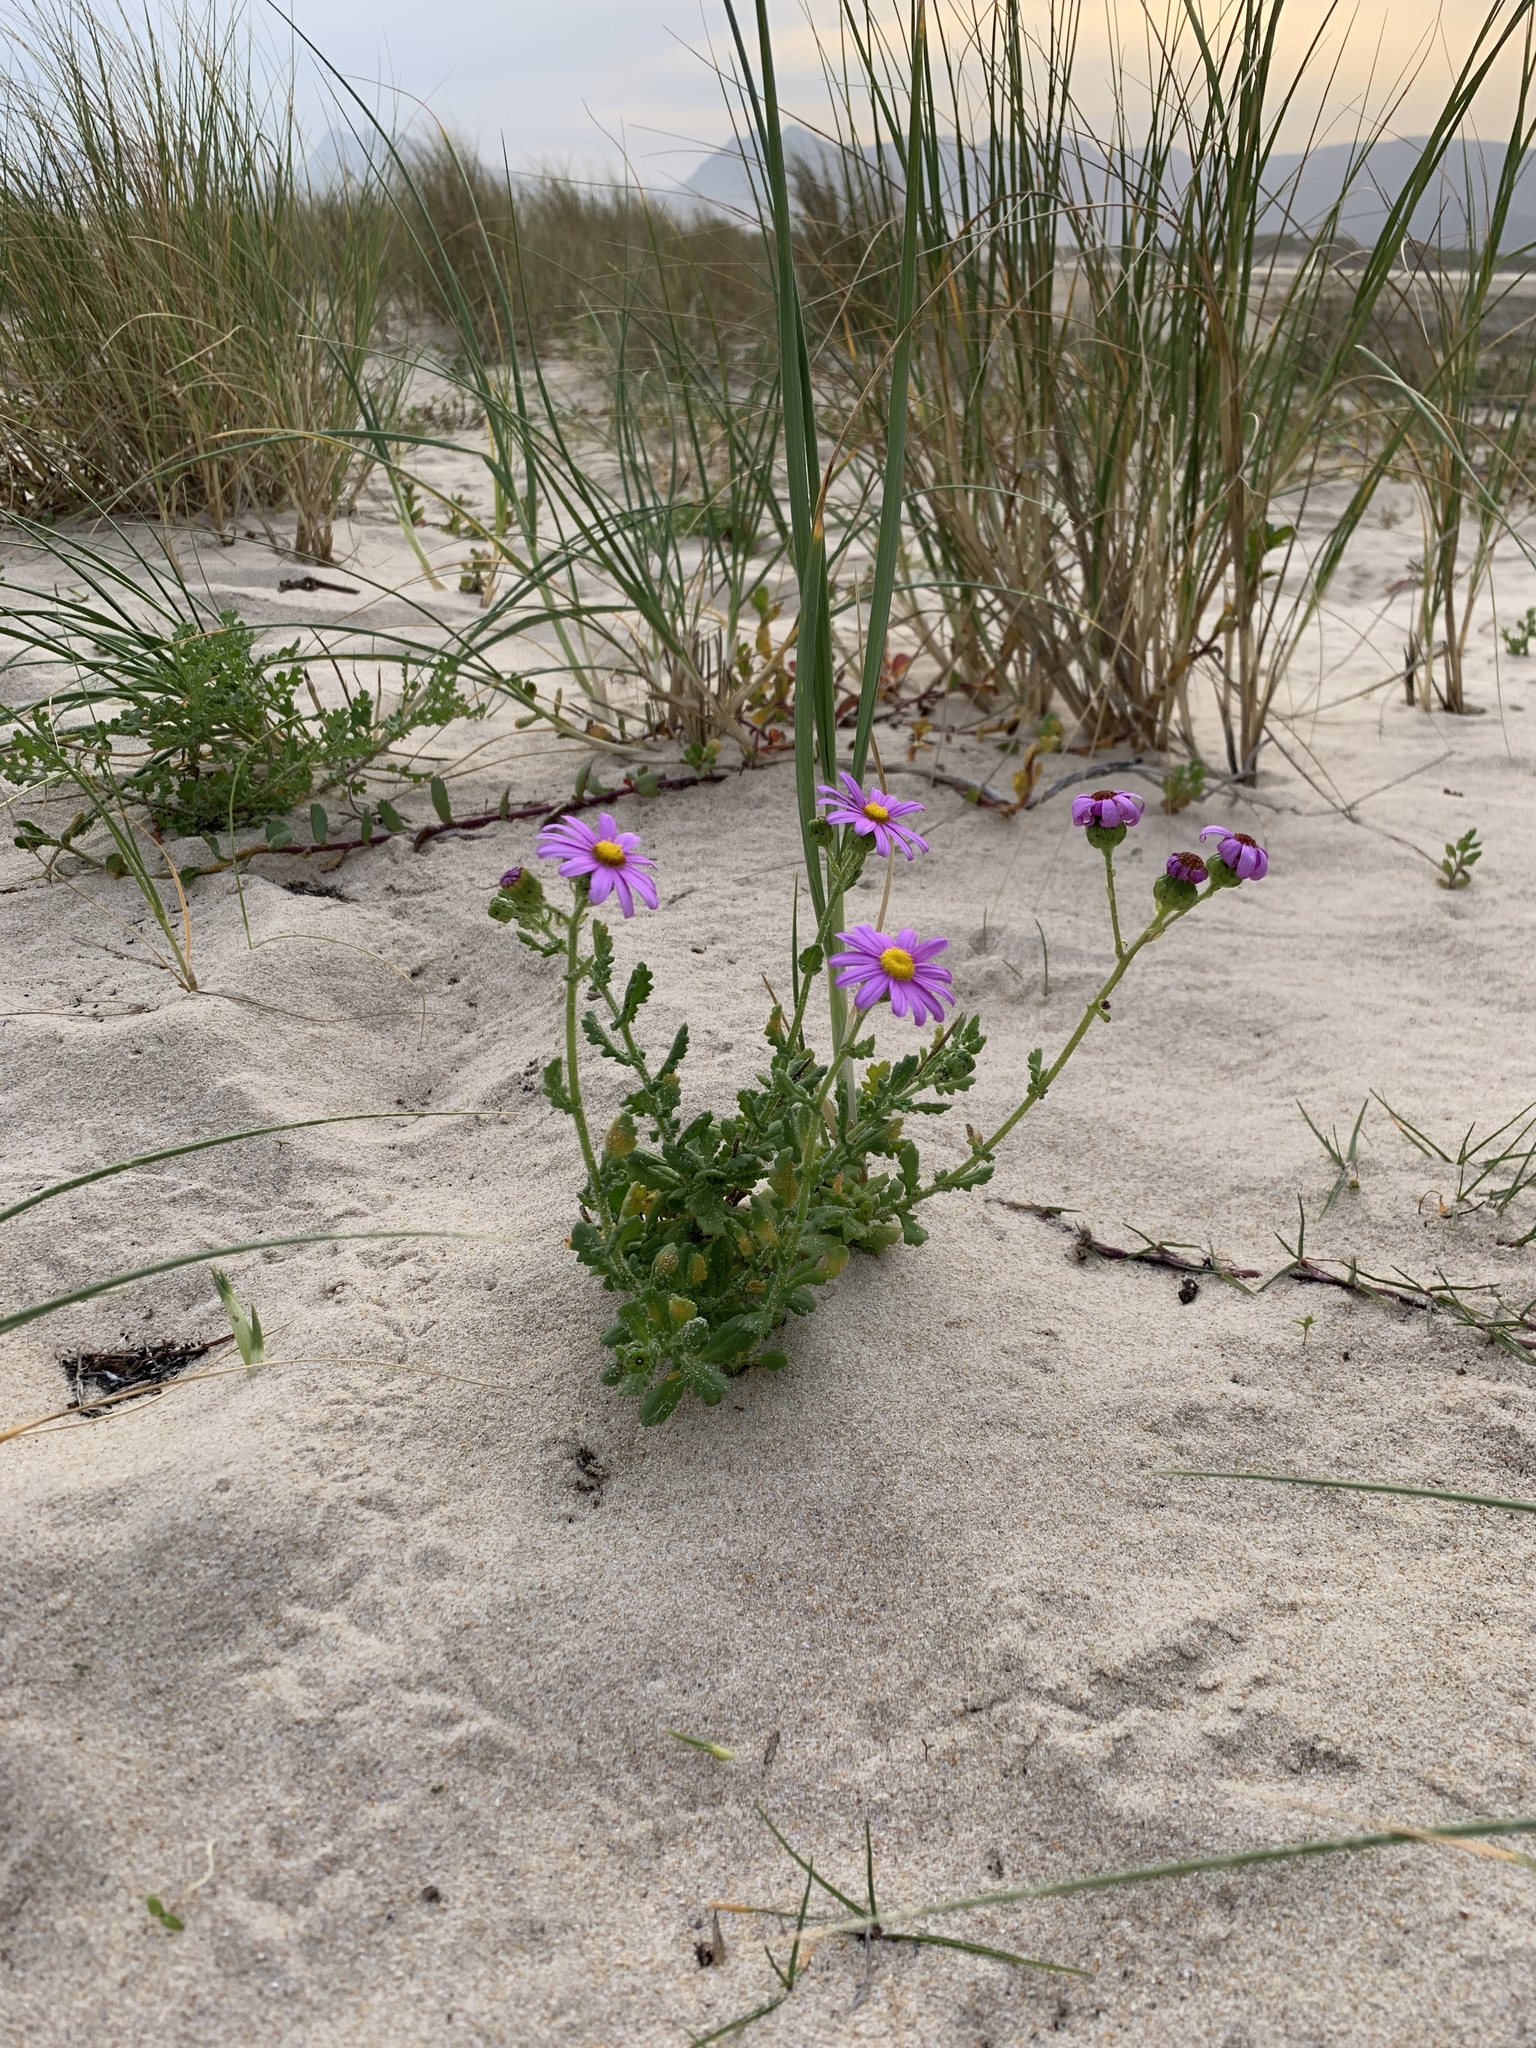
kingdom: Plantae
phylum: Tracheophyta
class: Magnoliopsida
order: Asterales
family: Asteraceae
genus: Senecio
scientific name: Senecio elegans
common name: Purple groundsel
